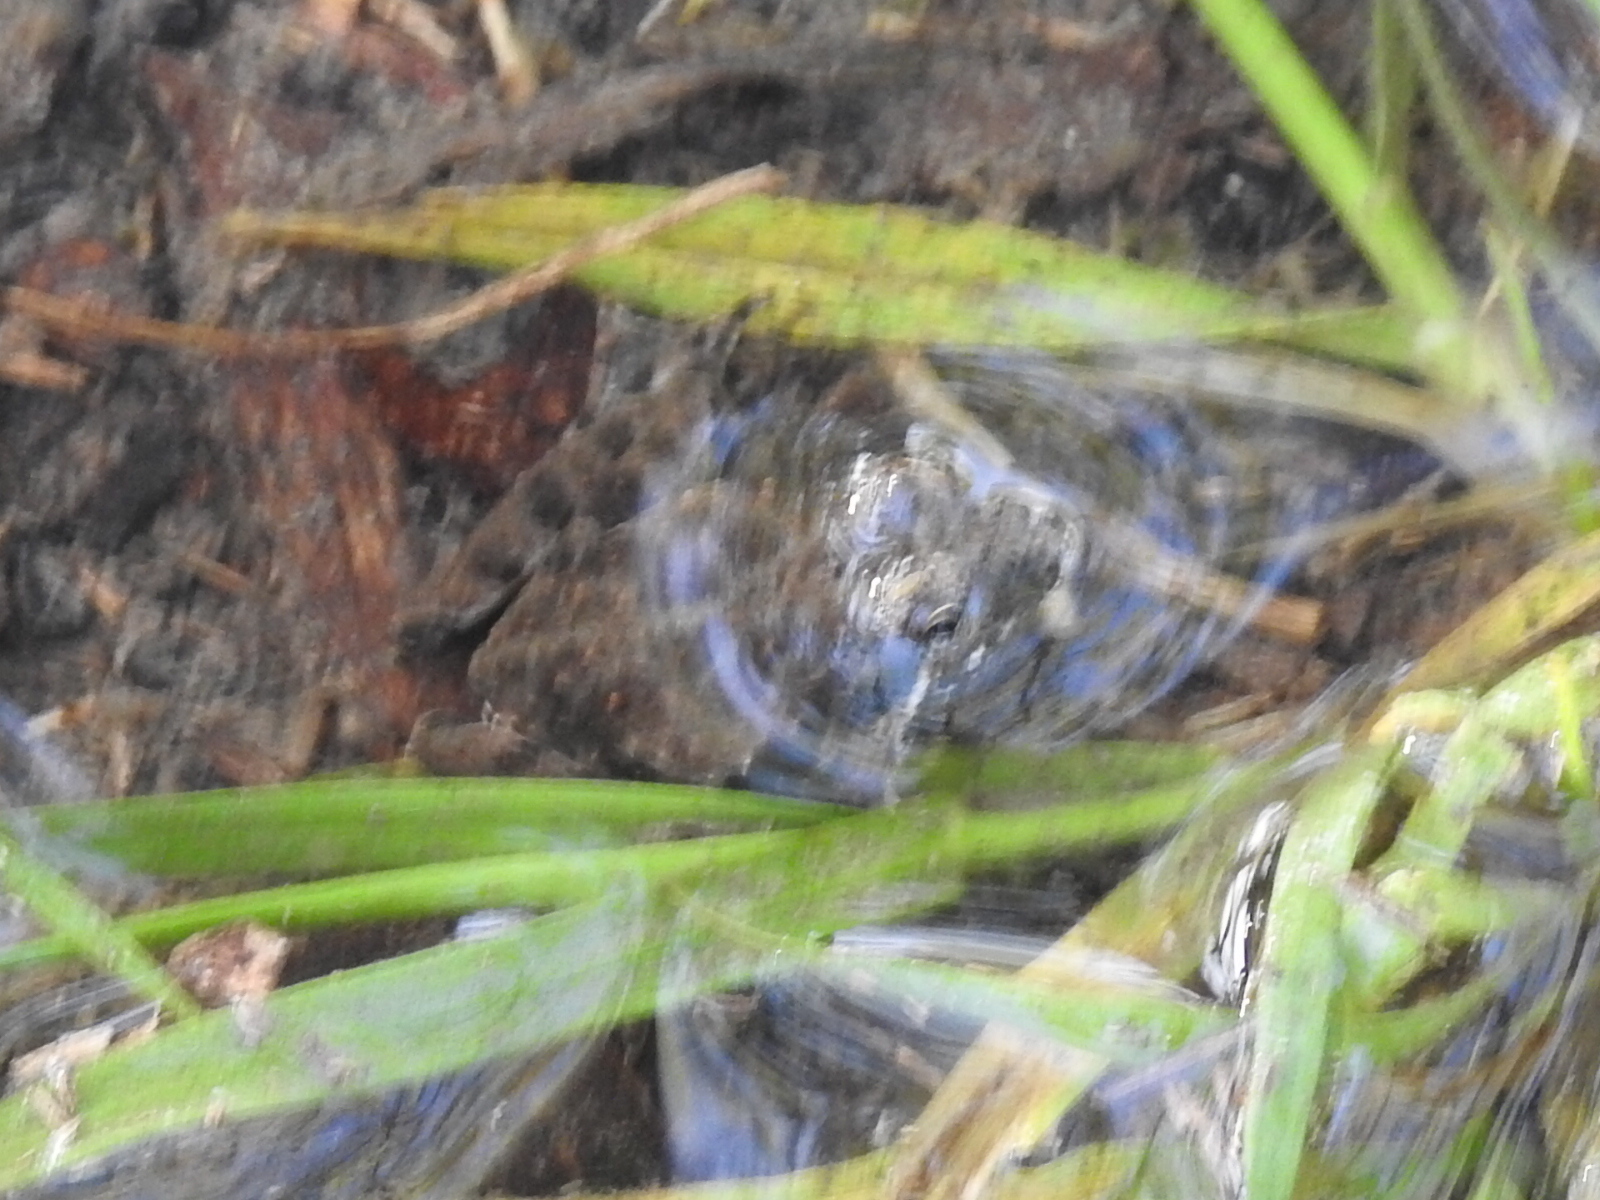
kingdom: Animalia
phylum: Chordata
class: Amphibia
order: Anura
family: Hylidae
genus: Acris
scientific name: Acris blanchardi
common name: Blanchard's cricket frog
